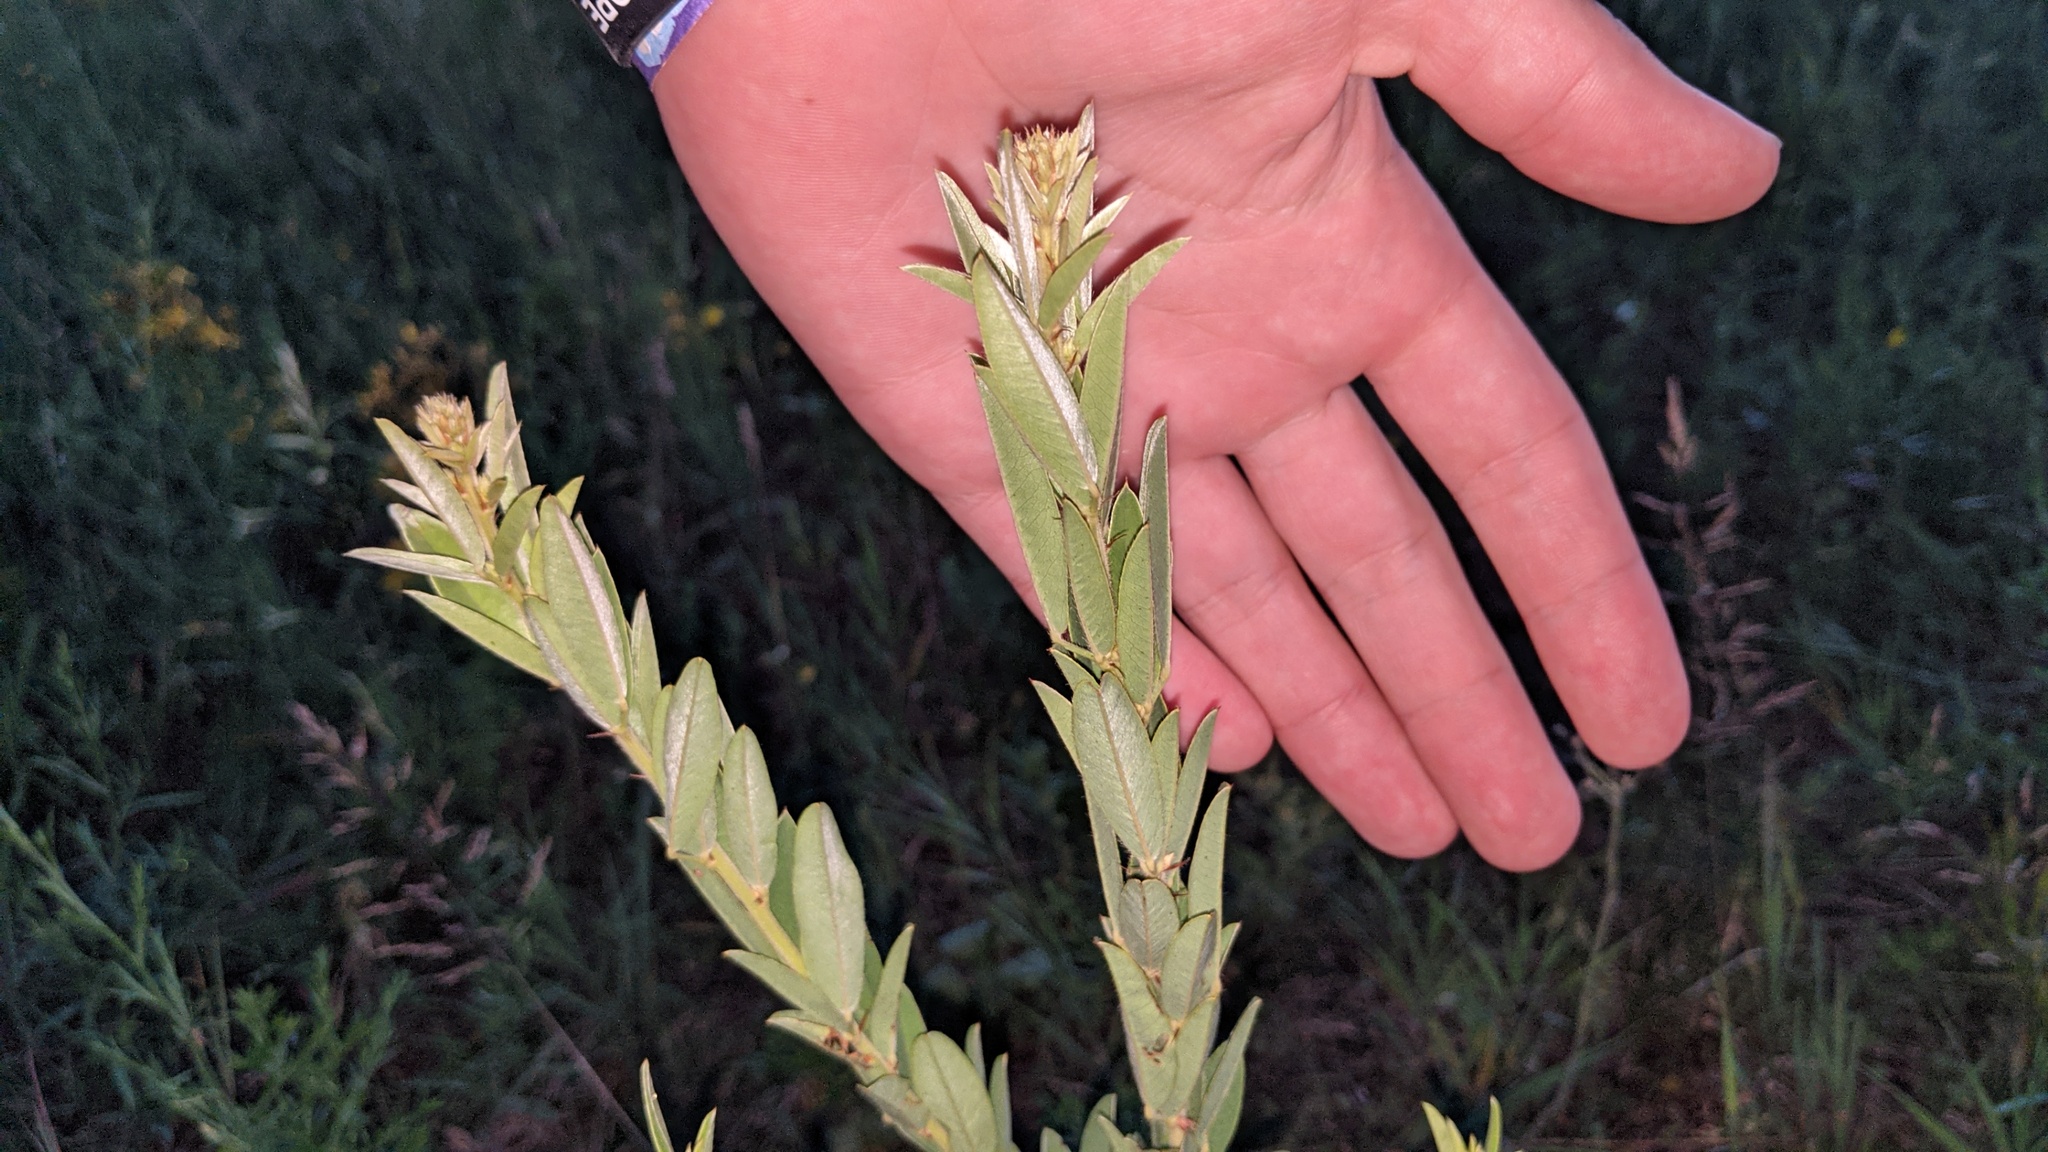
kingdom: Plantae
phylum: Tracheophyta
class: Magnoliopsida
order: Fabales
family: Fabaceae
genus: Lespedeza
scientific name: Lespedeza capitata
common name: Dusty clover
